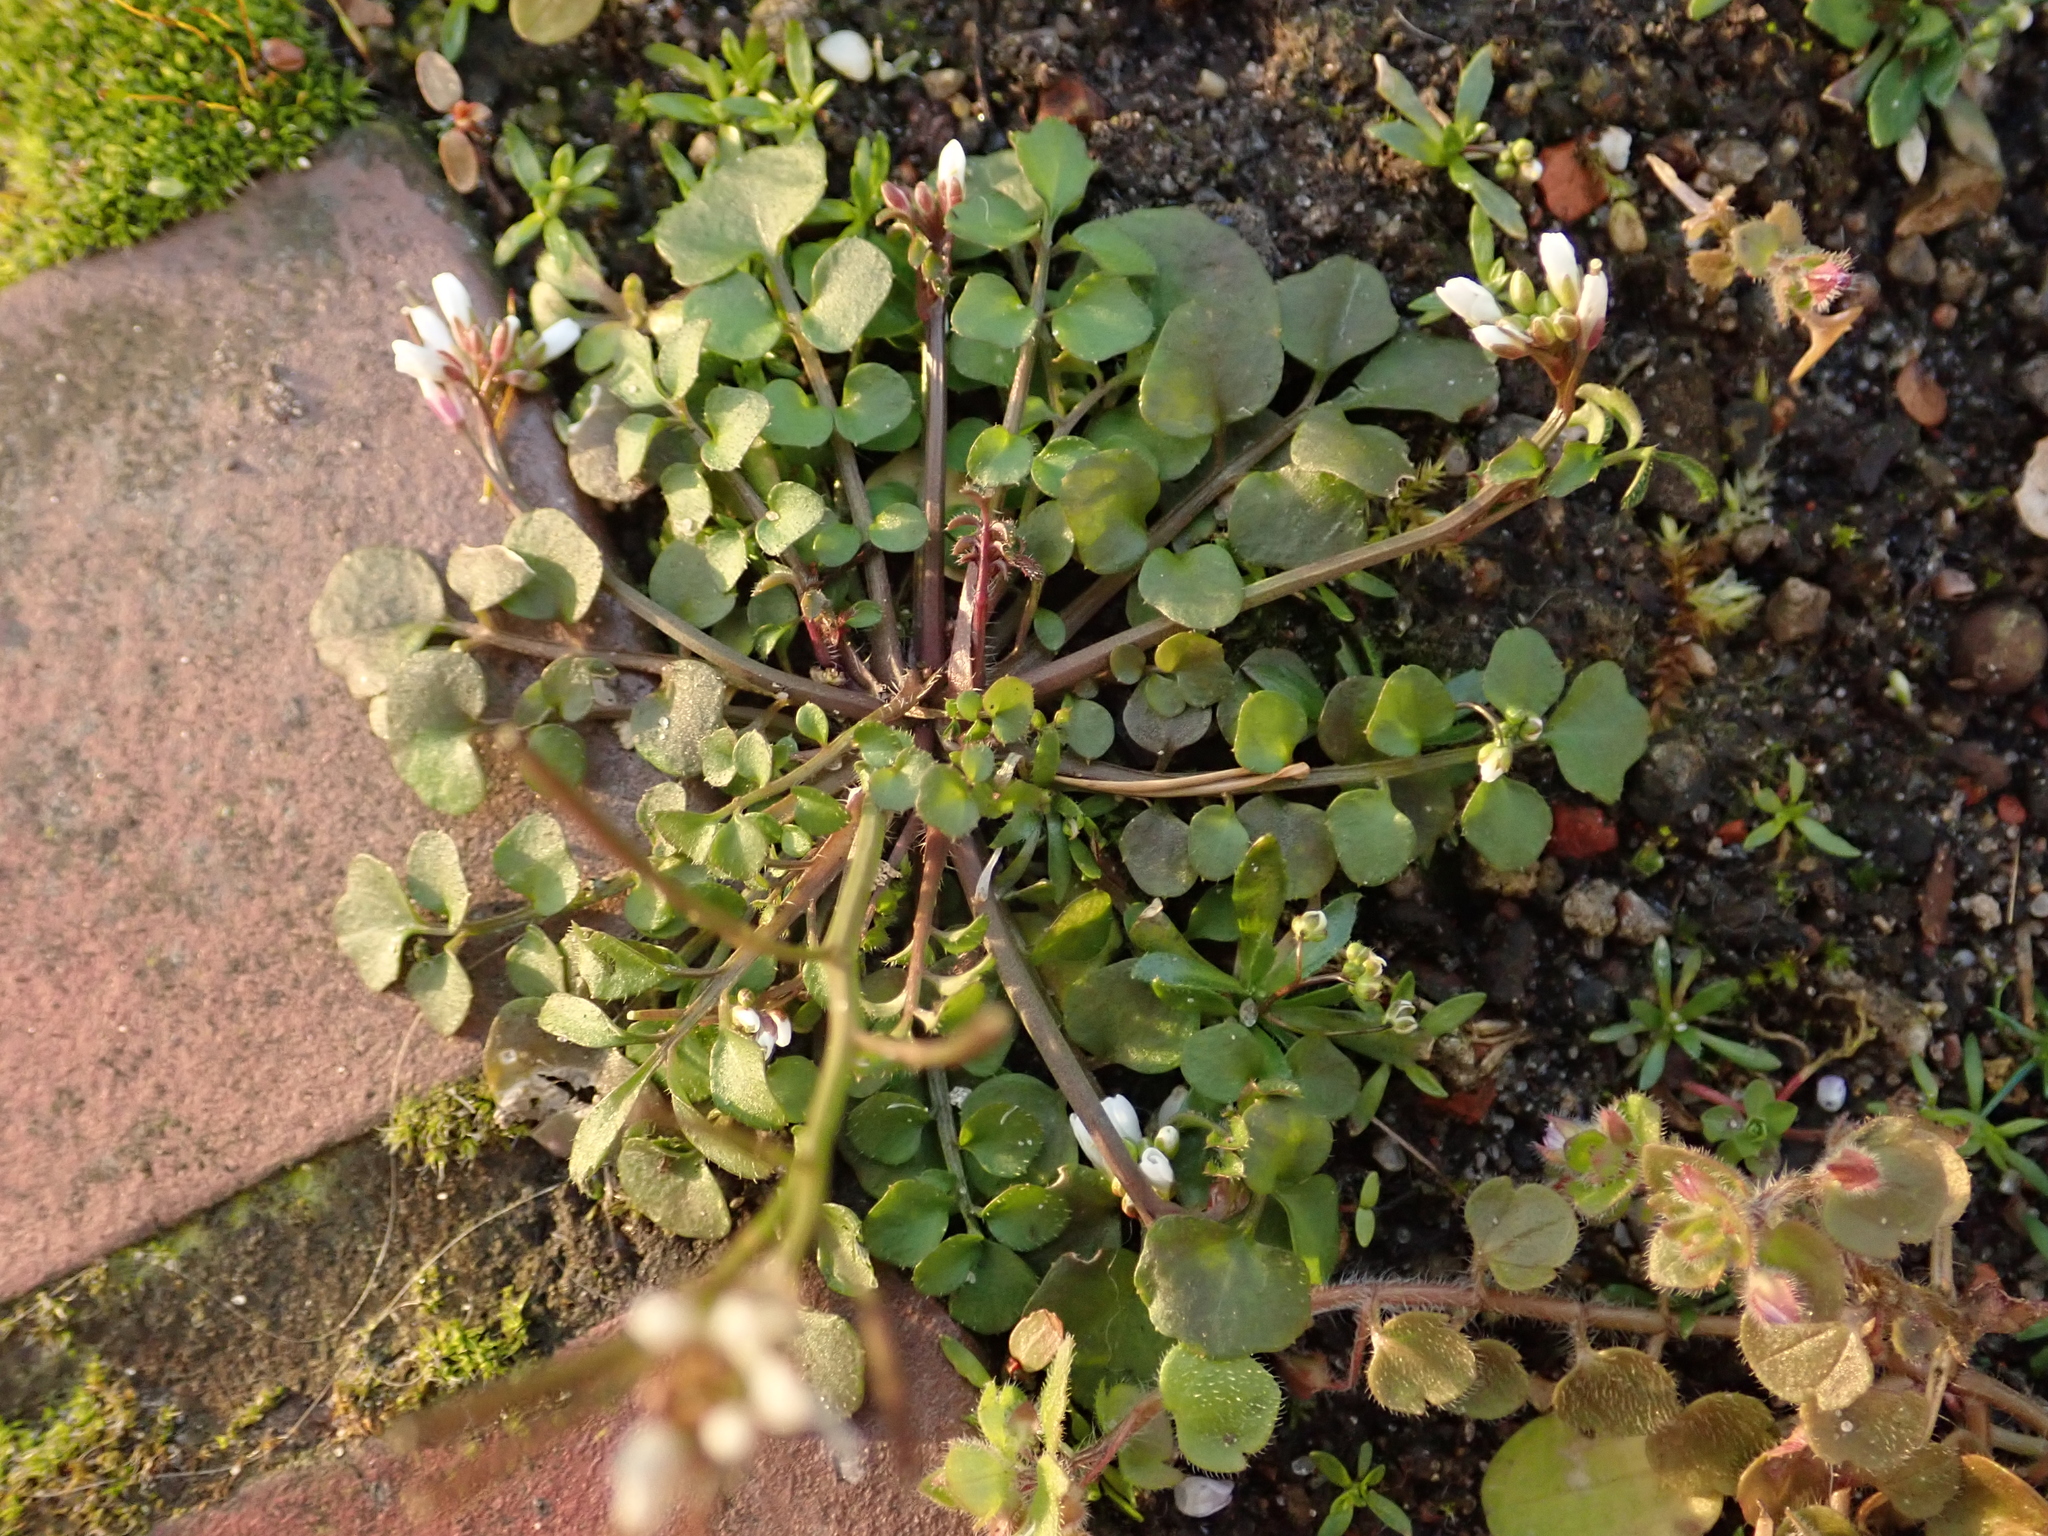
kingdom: Plantae
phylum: Tracheophyta
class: Magnoliopsida
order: Brassicales
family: Brassicaceae
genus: Cardamine
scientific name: Cardamine hirsuta
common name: Hairy bittercress
